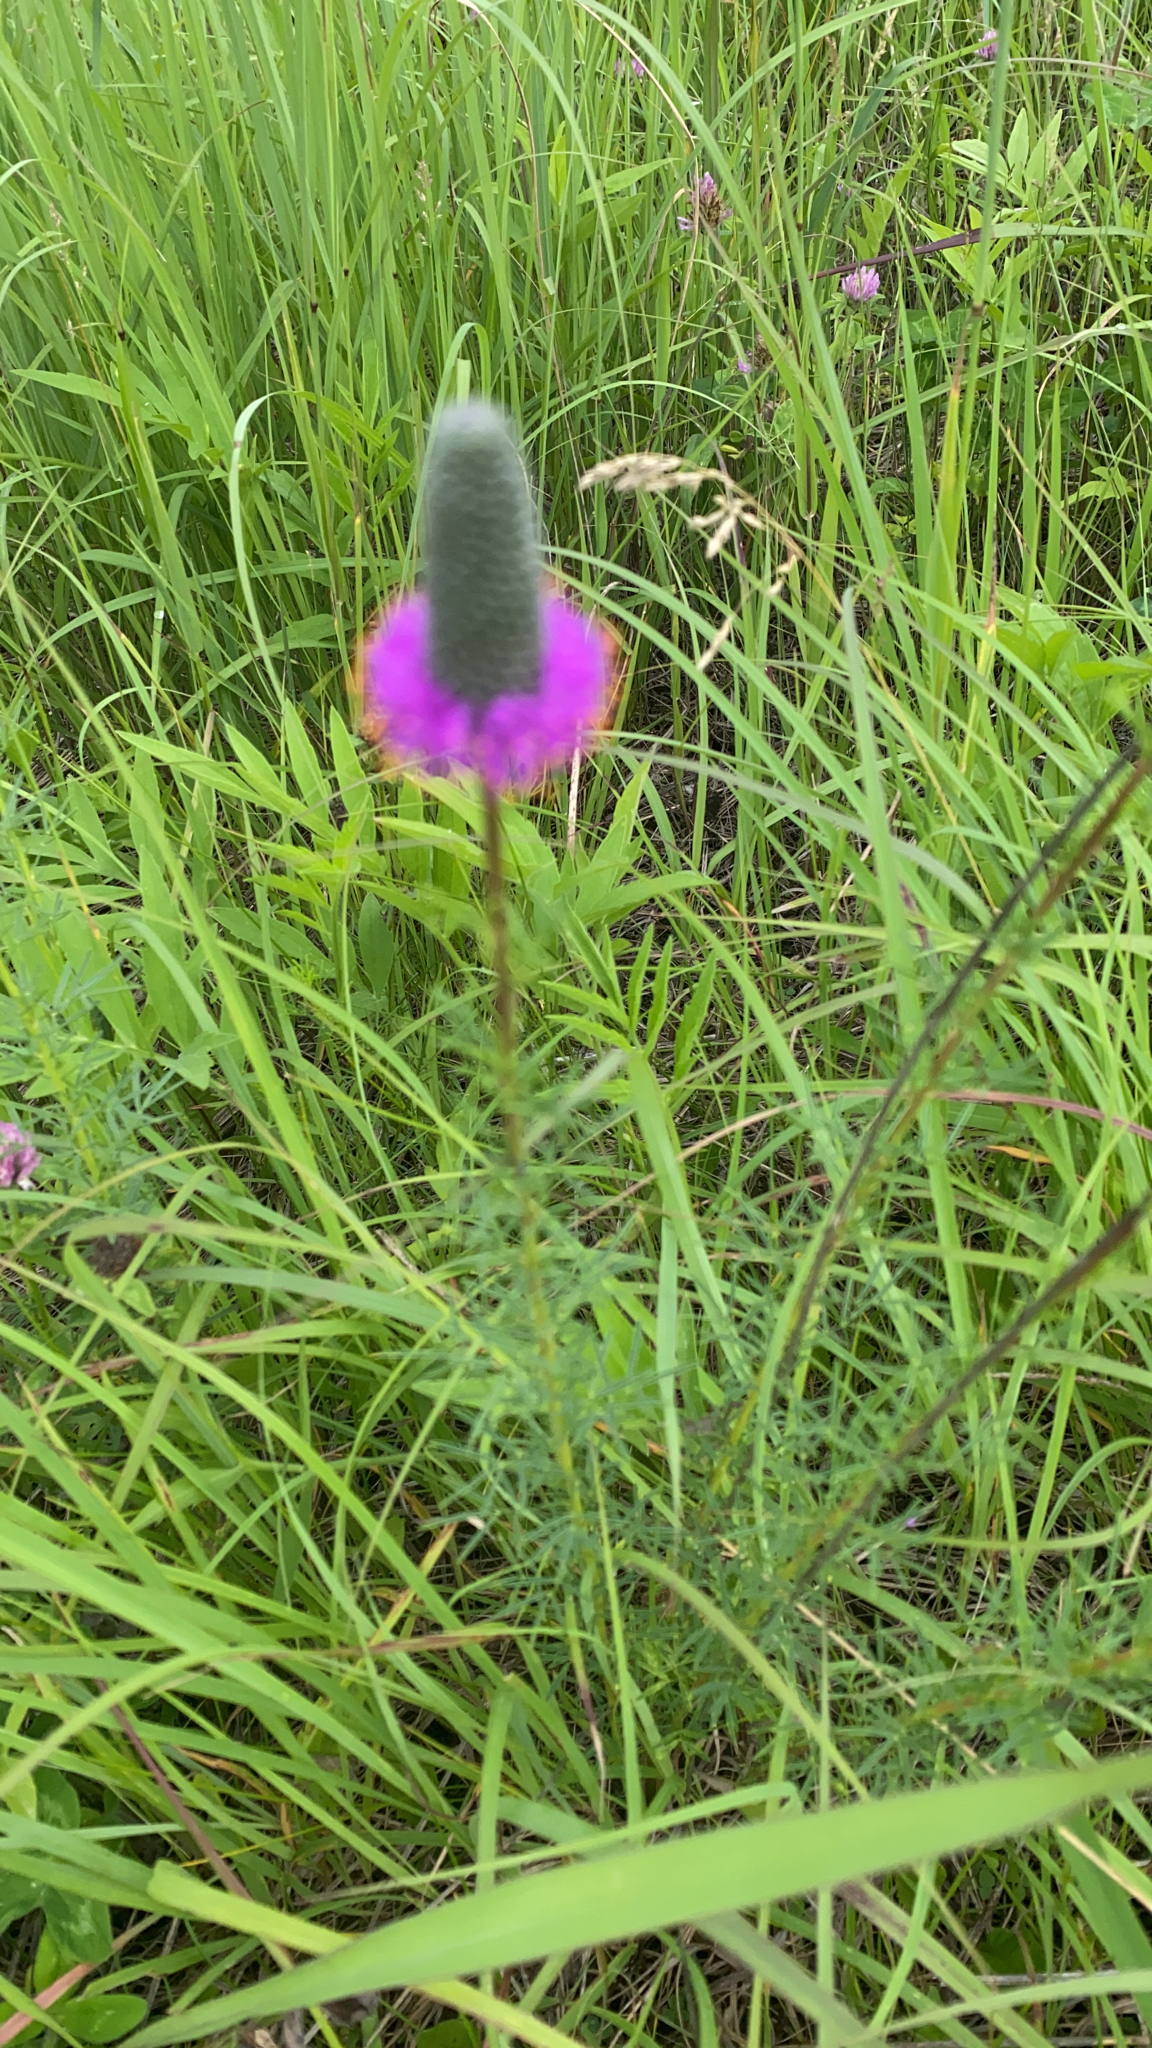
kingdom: Plantae
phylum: Tracheophyta
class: Magnoliopsida
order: Fabales
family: Fabaceae
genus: Dalea
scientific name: Dalea purpurea
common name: Purple prairie-clover
